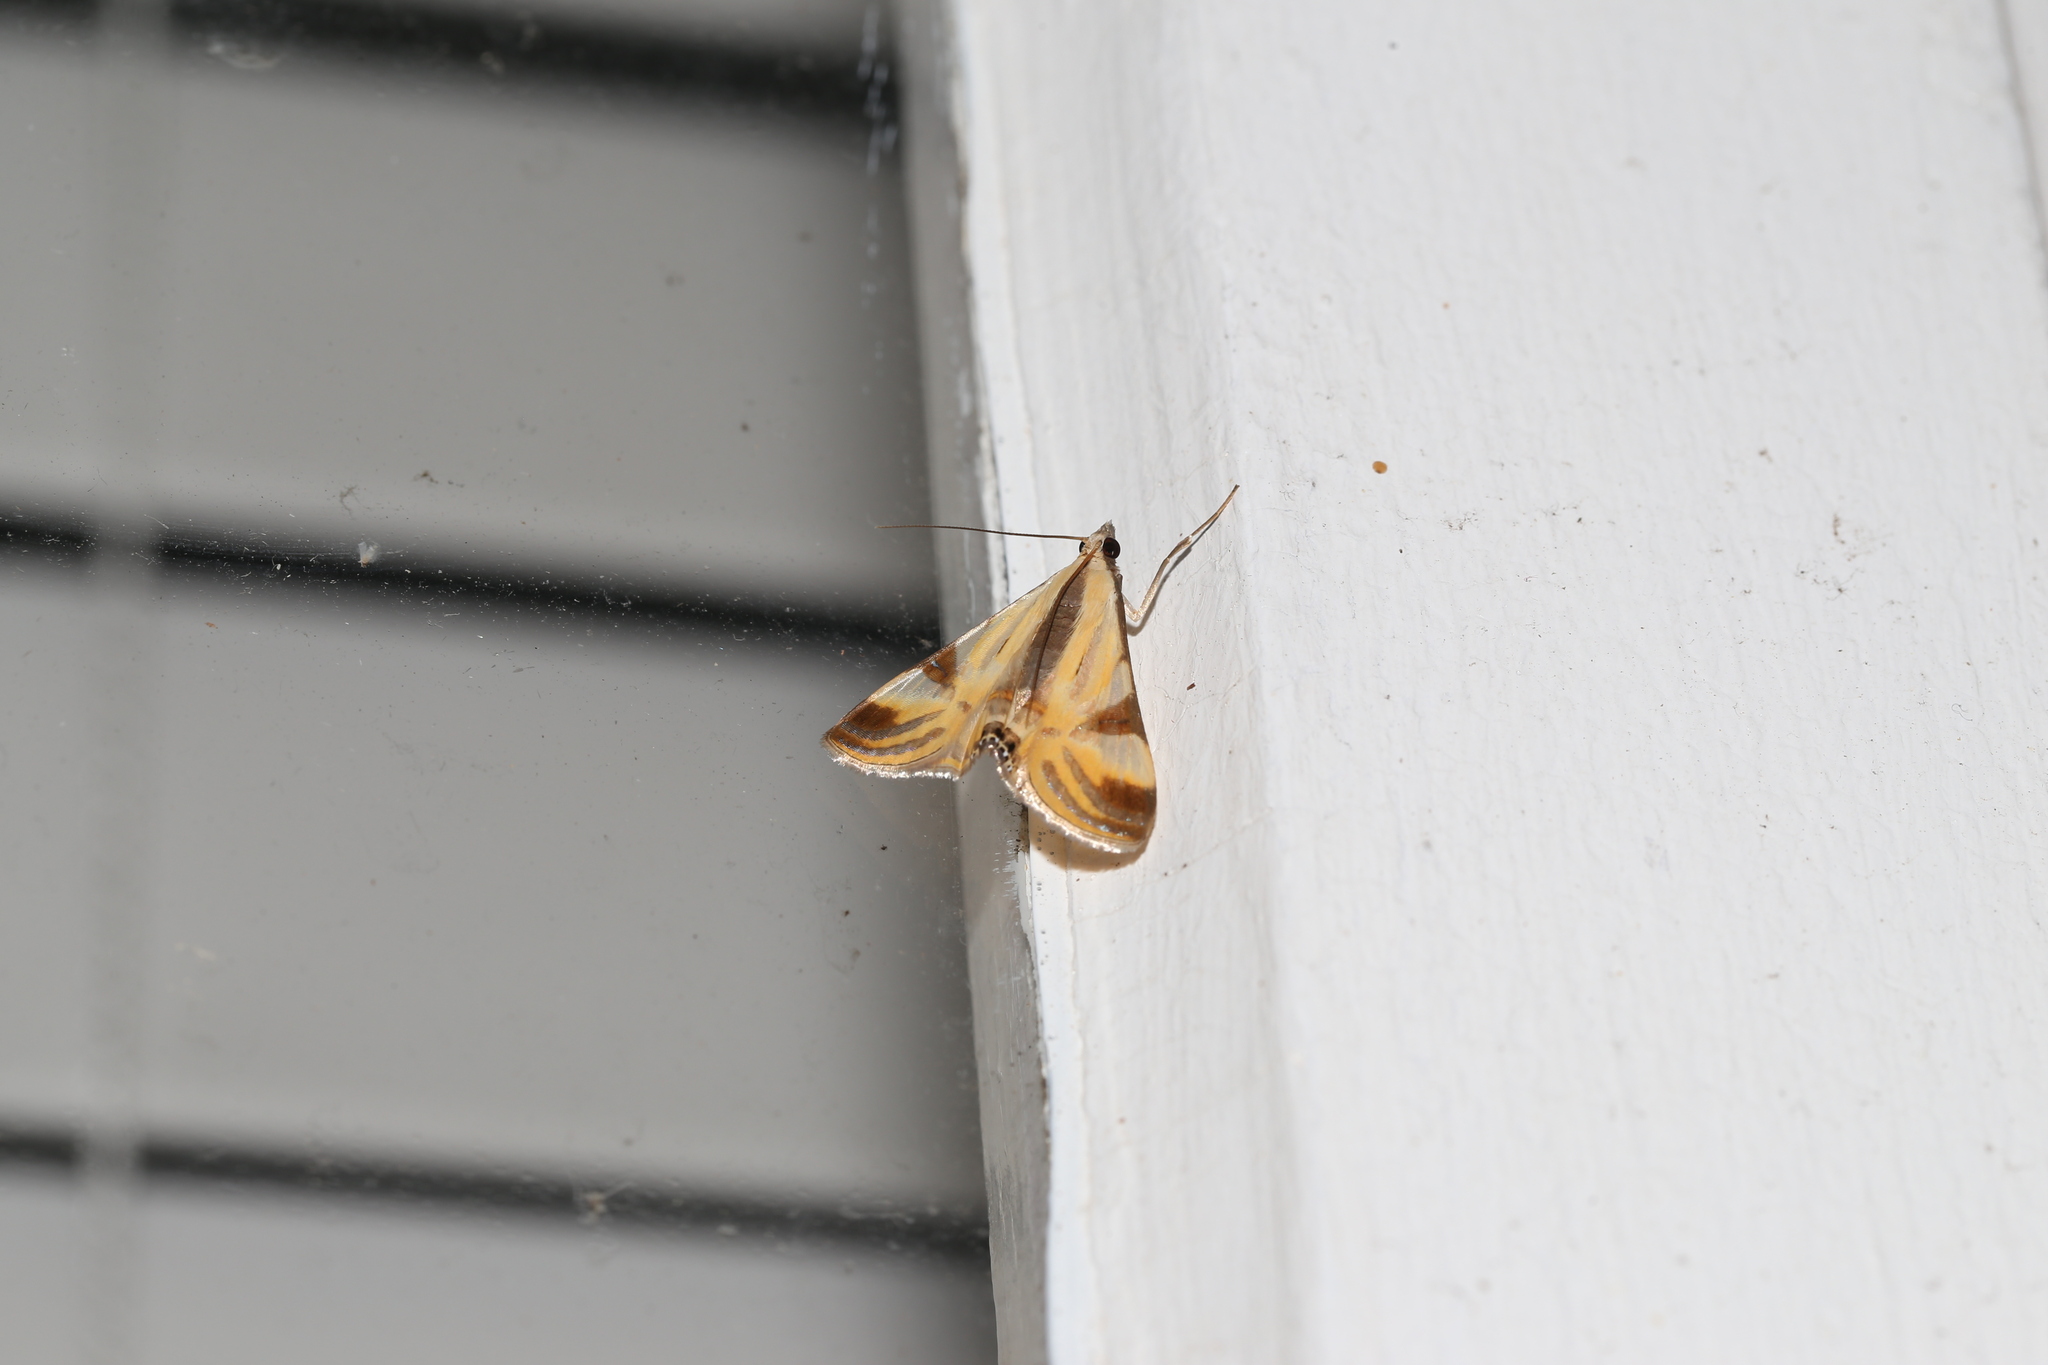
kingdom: Animalia
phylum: Arthropoda
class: Insecta
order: Lepidoptera
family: Crambidae
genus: Talanga
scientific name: Talanga tolumnialis
